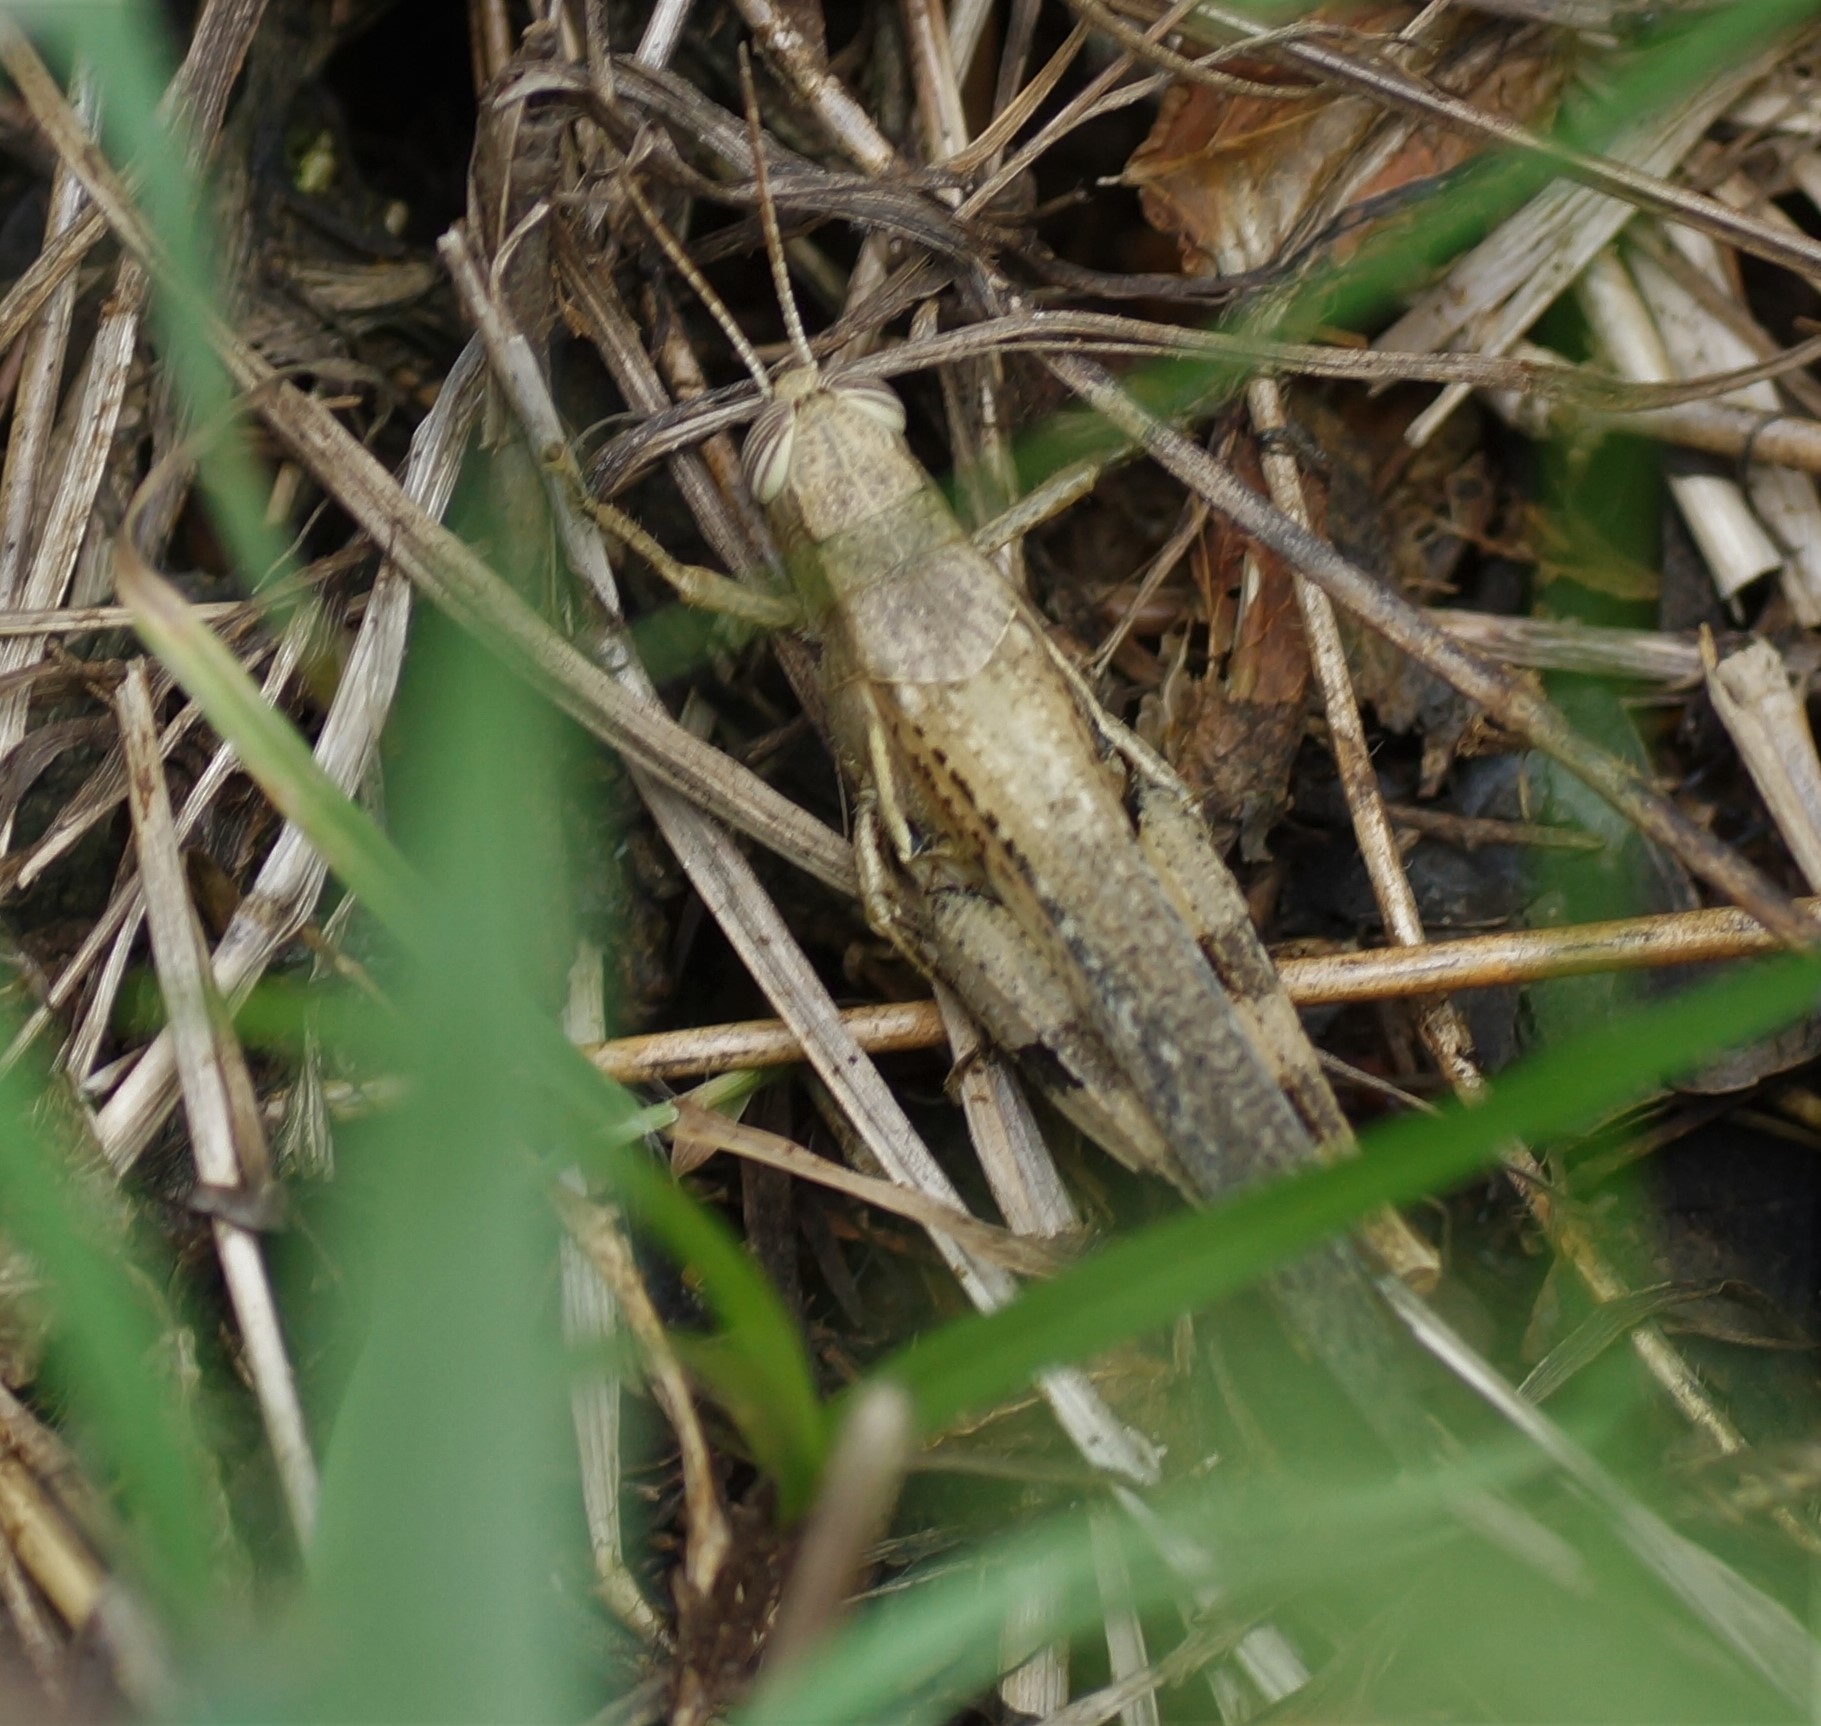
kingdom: Animalia
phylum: Arthropoda
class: Insecta
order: Orthoptera
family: Acrididae
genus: Stenocatantops
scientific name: Stenocatantops angustifrons
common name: Common tropical sharptail
